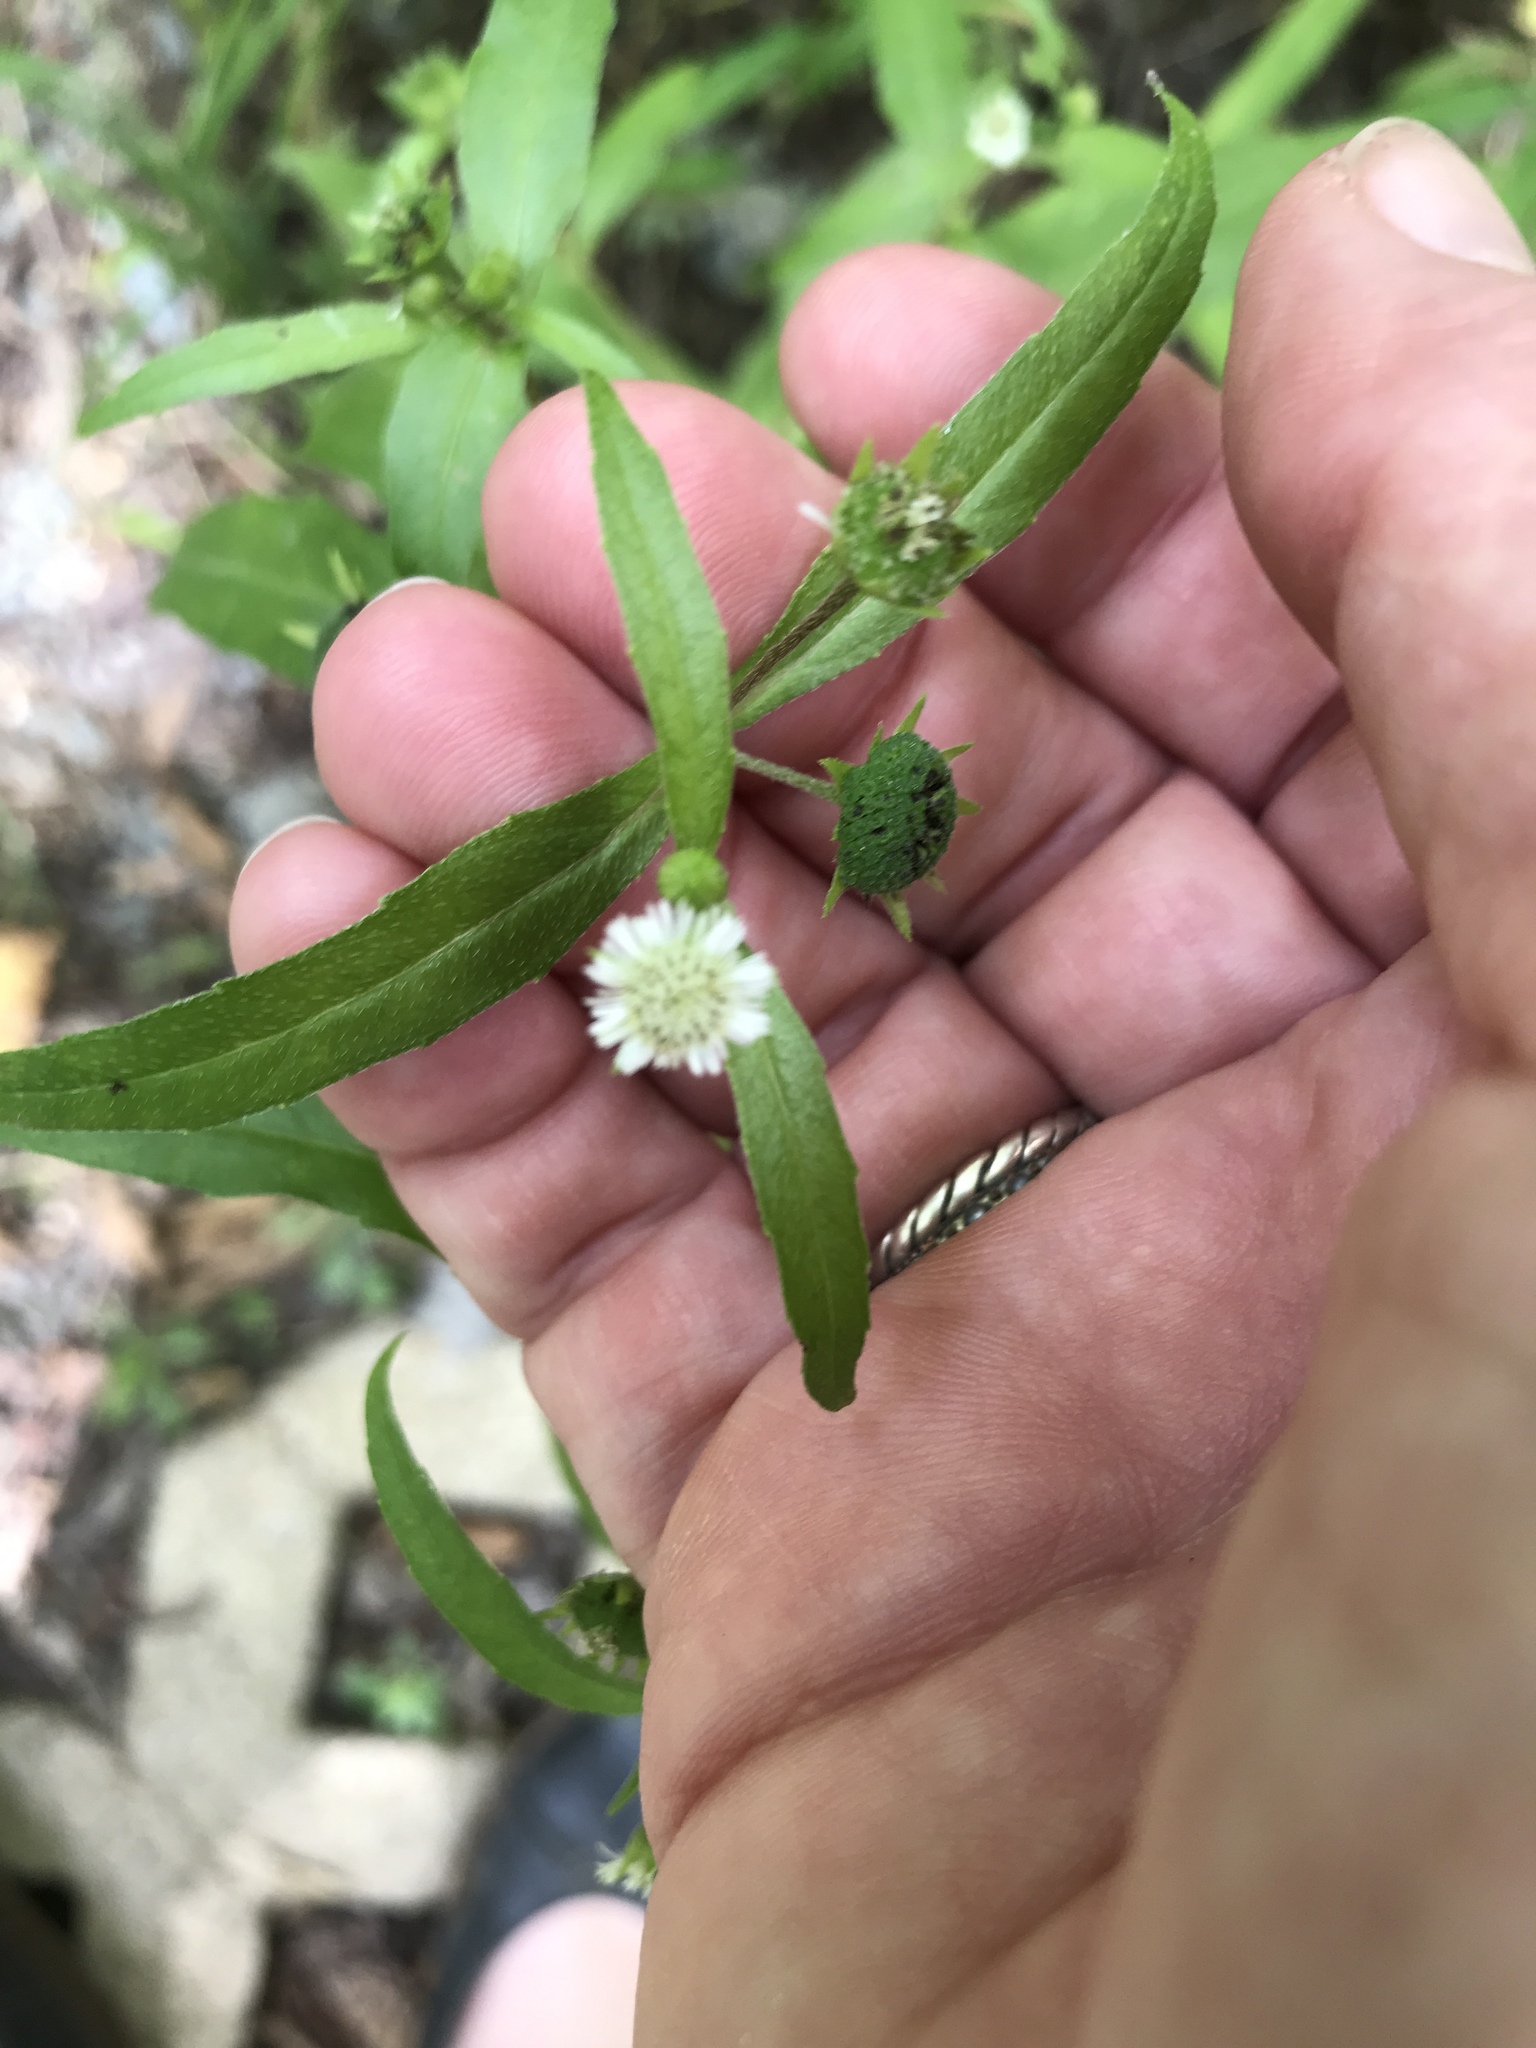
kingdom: Plantae
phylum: Tracheophyta
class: Magnoliopsida
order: Asterales
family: Asteraceae
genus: Eclipta
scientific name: Eclipta prostrata
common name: False daisy
